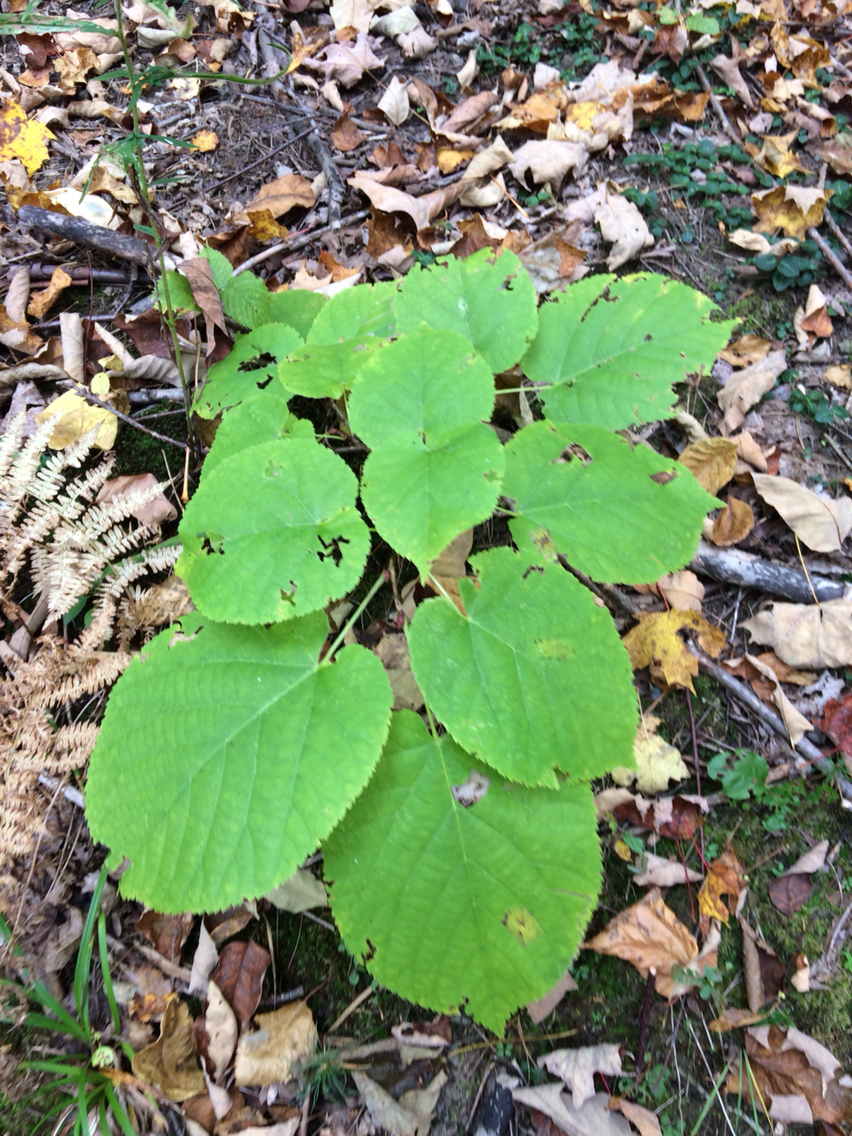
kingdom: Plantae
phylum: Tracheophyta
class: Magnoliopsida
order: Malvales
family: Malvaceae
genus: Tilia
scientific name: Tilia americana
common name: Basswood
